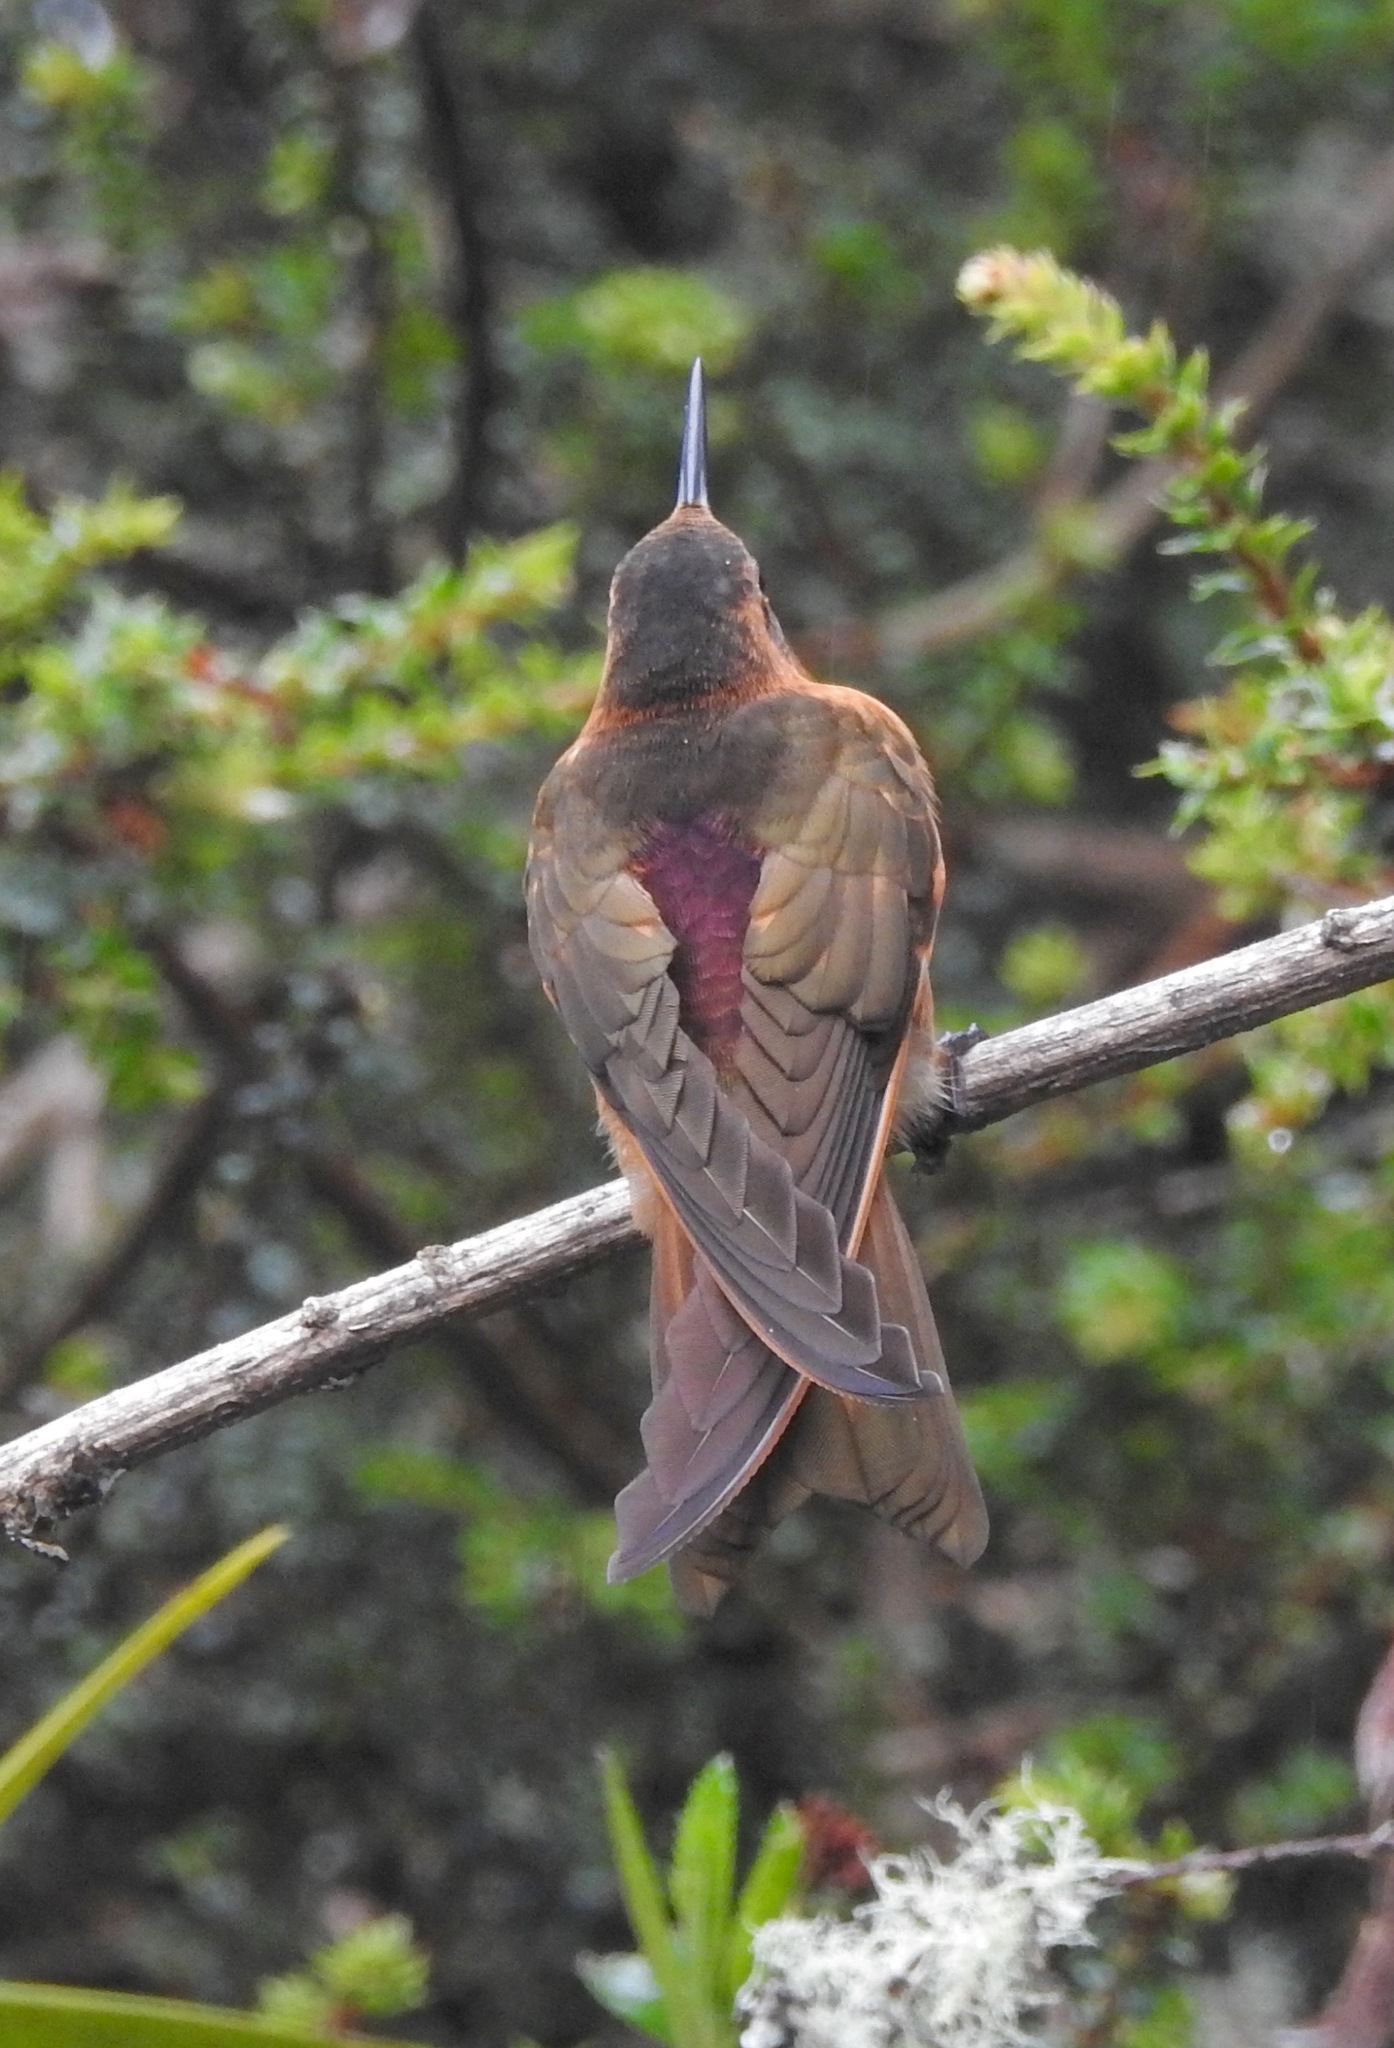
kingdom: Animalia
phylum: Chordata
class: Aves
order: Apodiformes
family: Trochilidae
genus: Aglaeactis
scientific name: Aglaeactis cupripennis
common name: Shining sunbeam
